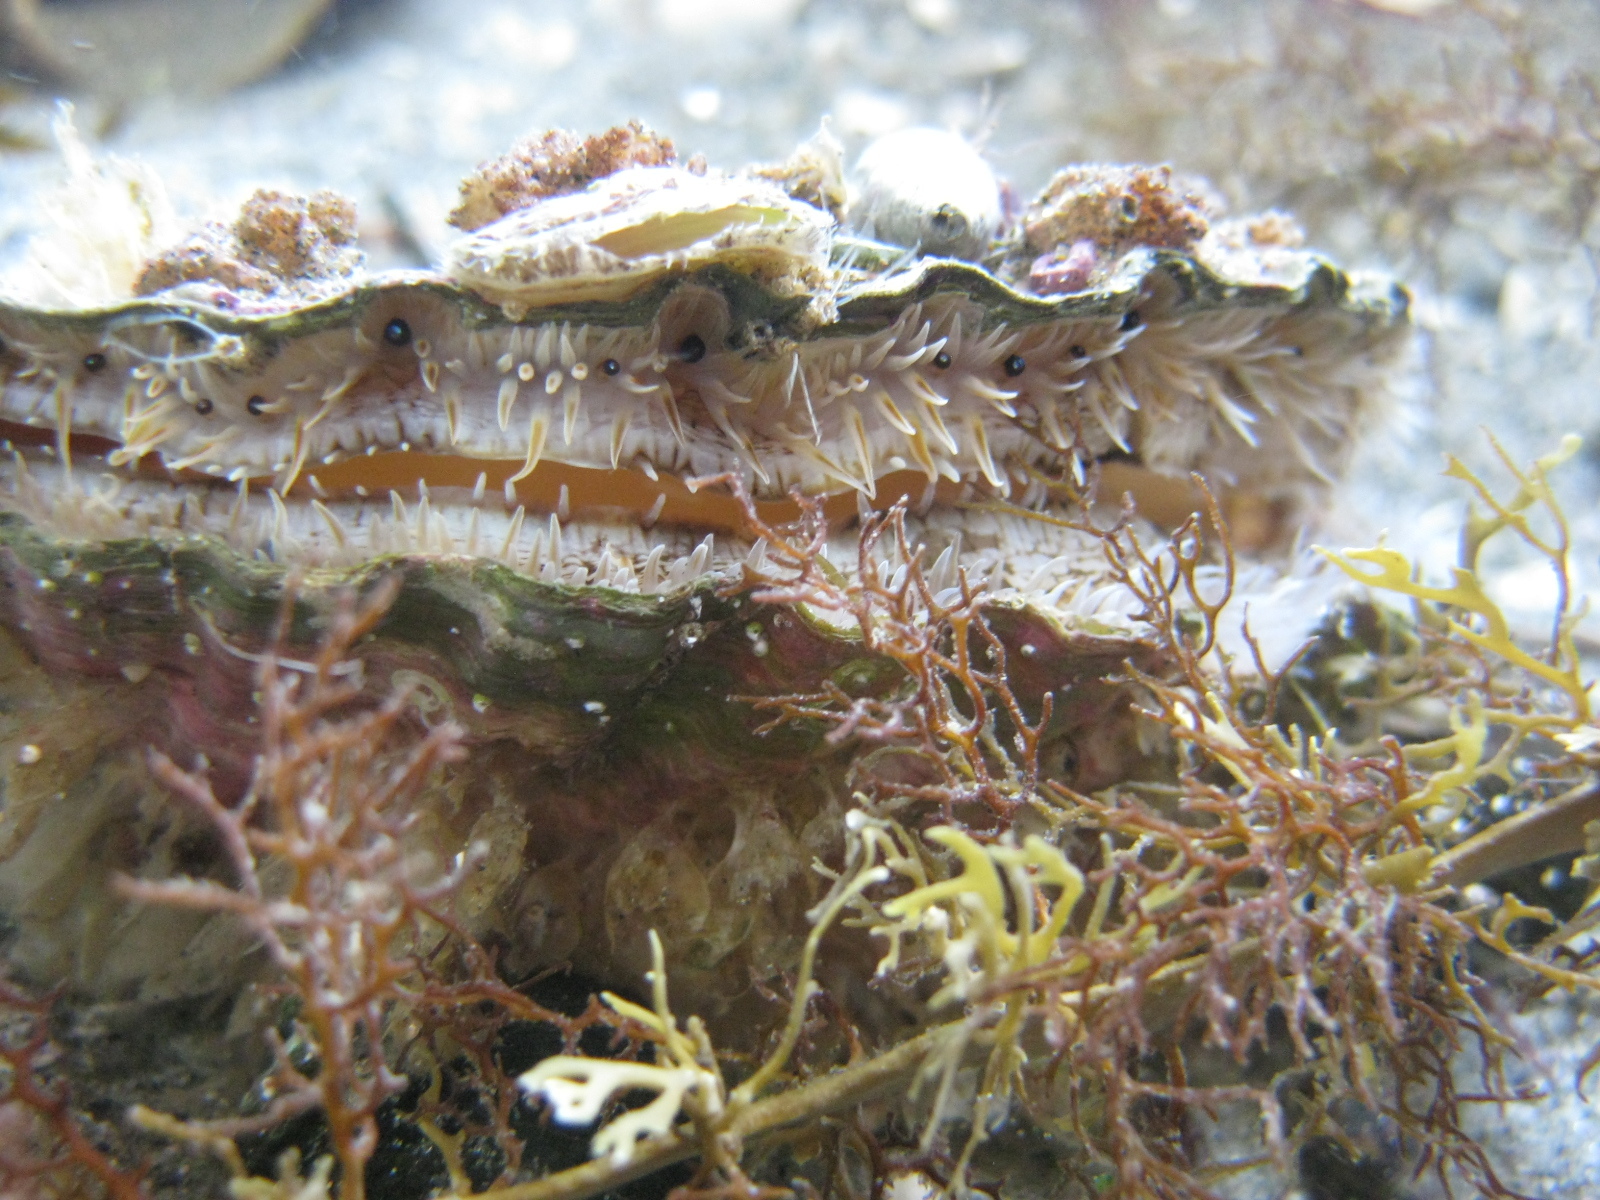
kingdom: Animalia
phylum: Mollusca
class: Bivalvia
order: Pectinida
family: Pectinidae
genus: Pecten
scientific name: Pecten novaezelandiae
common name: New zealand scallop
